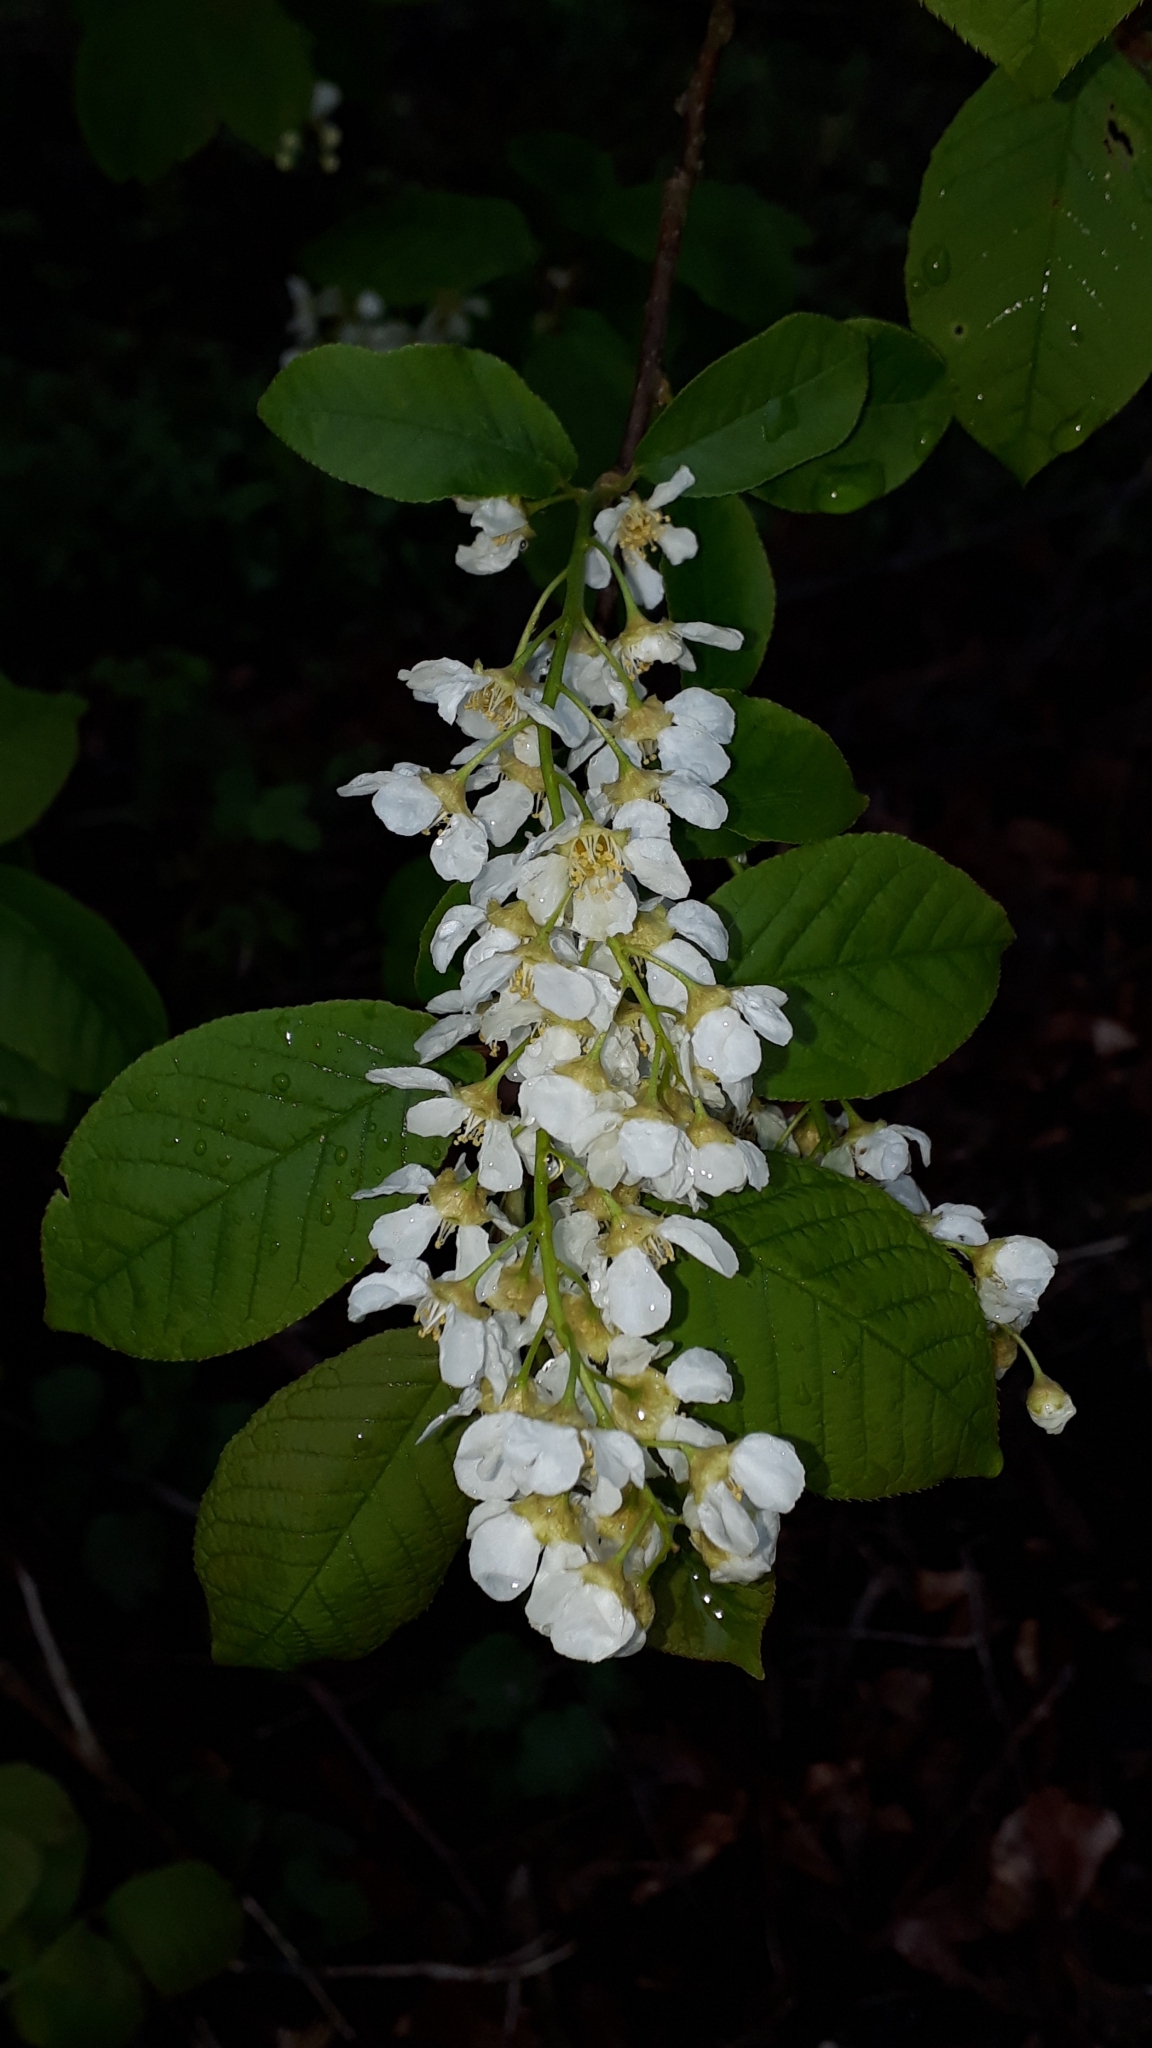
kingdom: Plantae
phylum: Tracheophyta
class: Magnoliopsida
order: Rosales
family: Rosaceae
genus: Prunus
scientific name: Prunus padus
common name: Bird cherry
